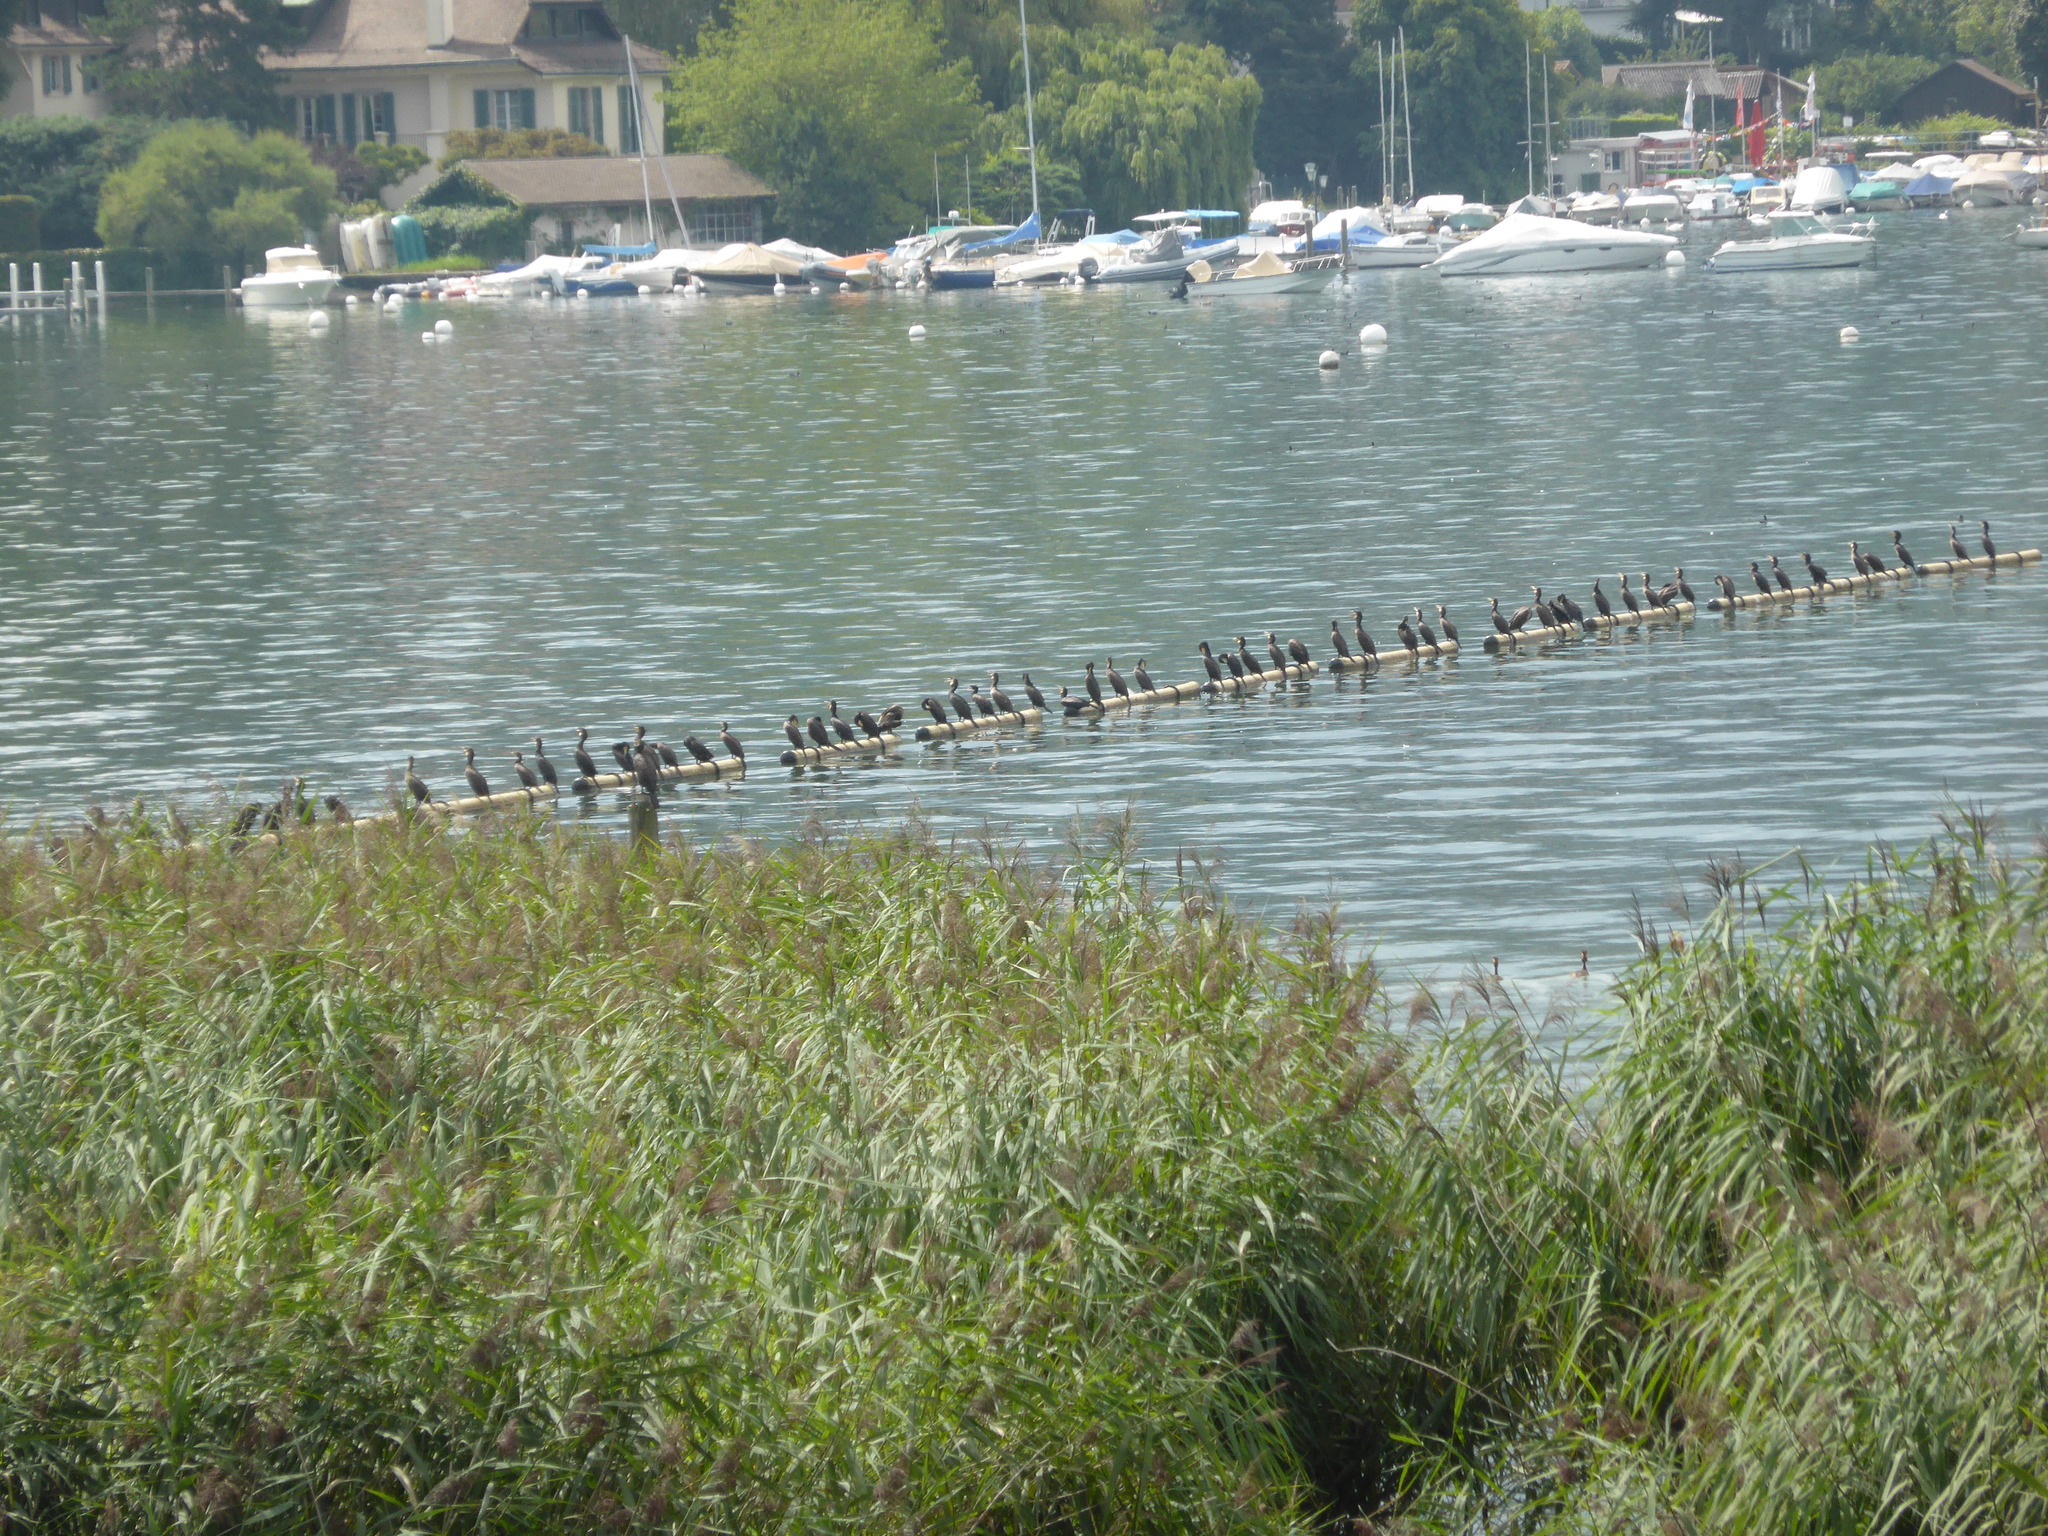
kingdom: Animalia
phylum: Chordata
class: Aves
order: Suliformes
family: Phalacrocoracidae
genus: Phalacrocorax
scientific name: Phalacrocorax carbo
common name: Great cormorant
